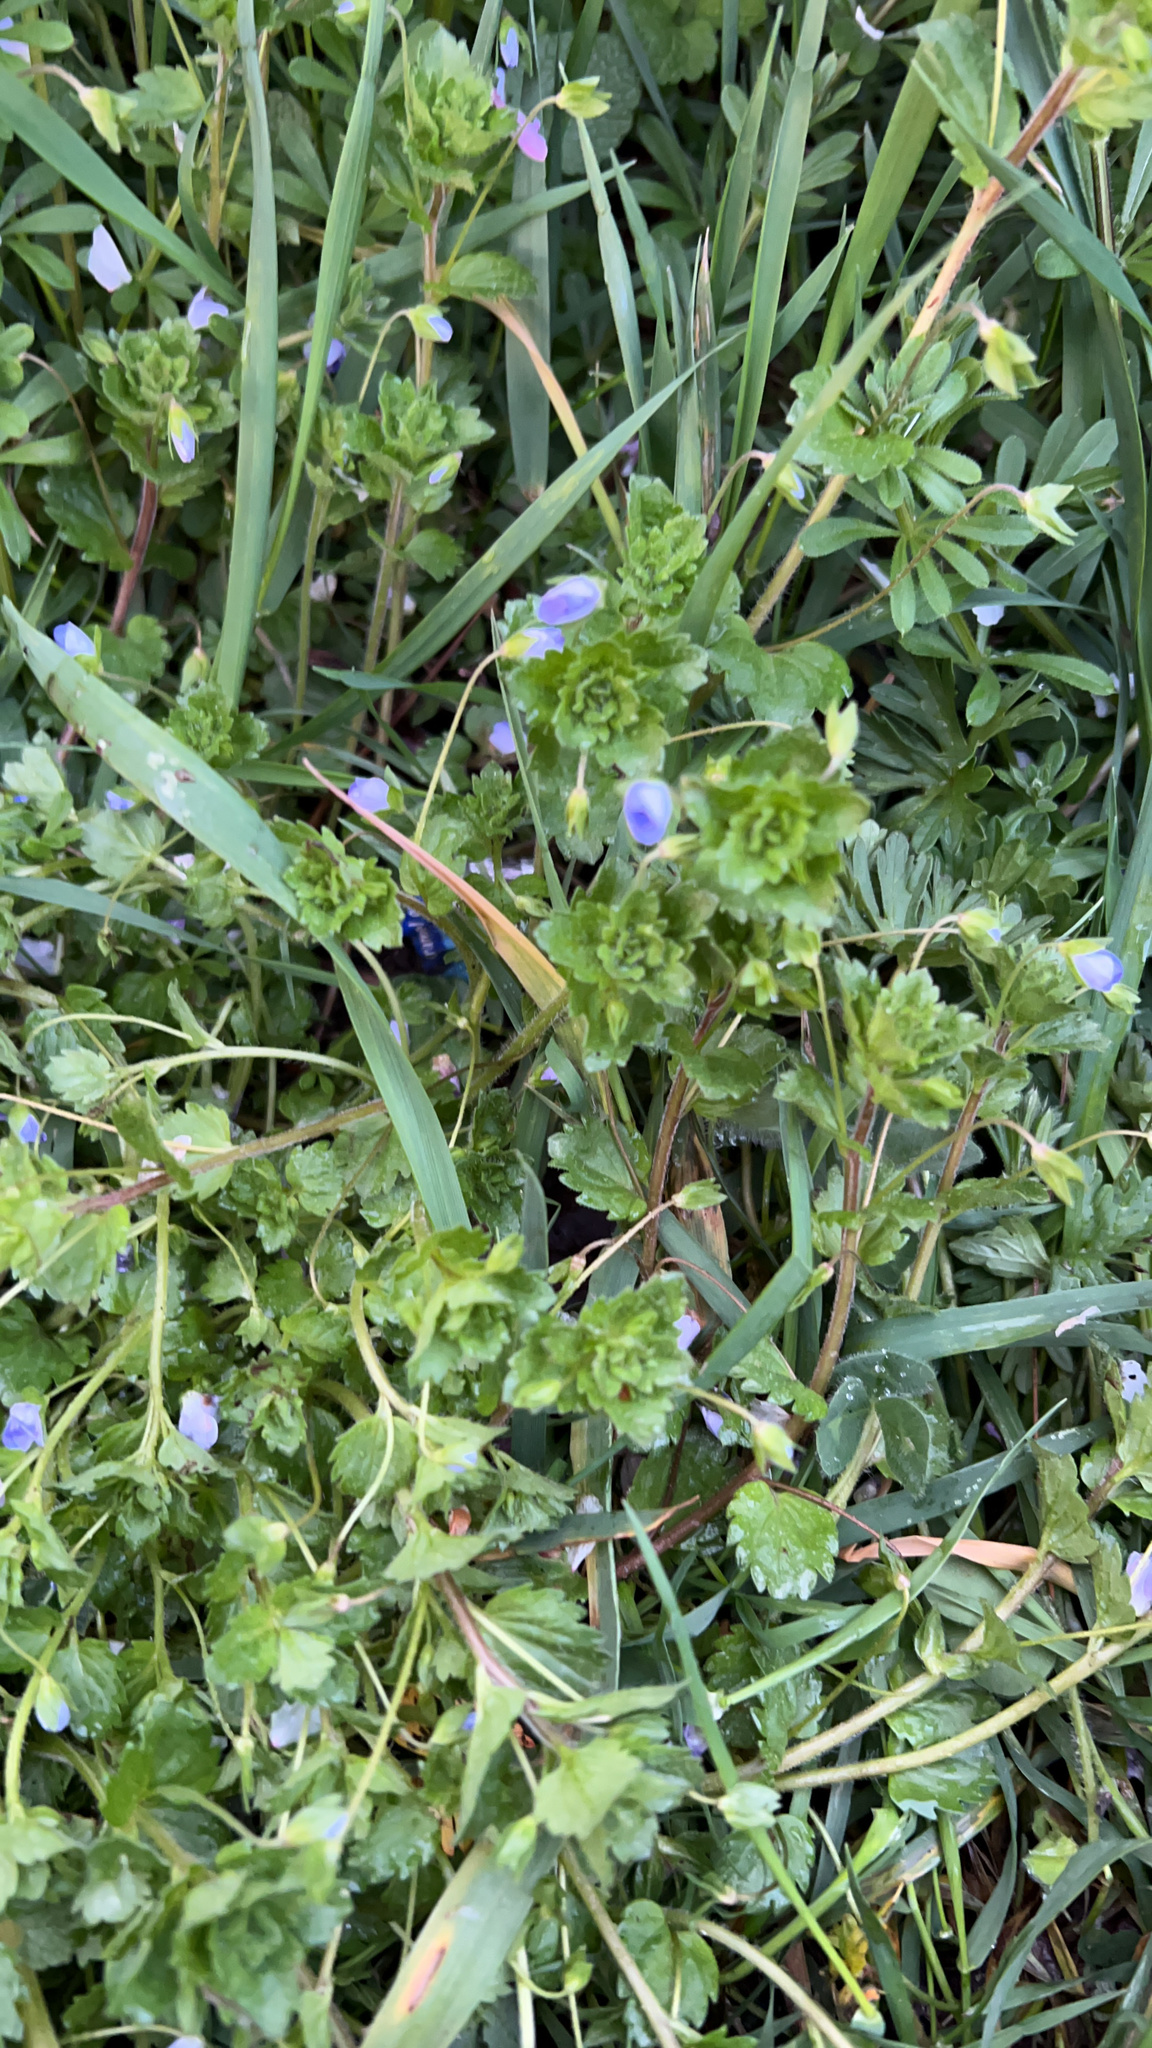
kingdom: Plantae
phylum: Tracheophyta
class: Magnoliopsida
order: Lamiales
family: Plantaginaceae
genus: Veronica
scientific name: Veronica persica
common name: Common field-speedwell
